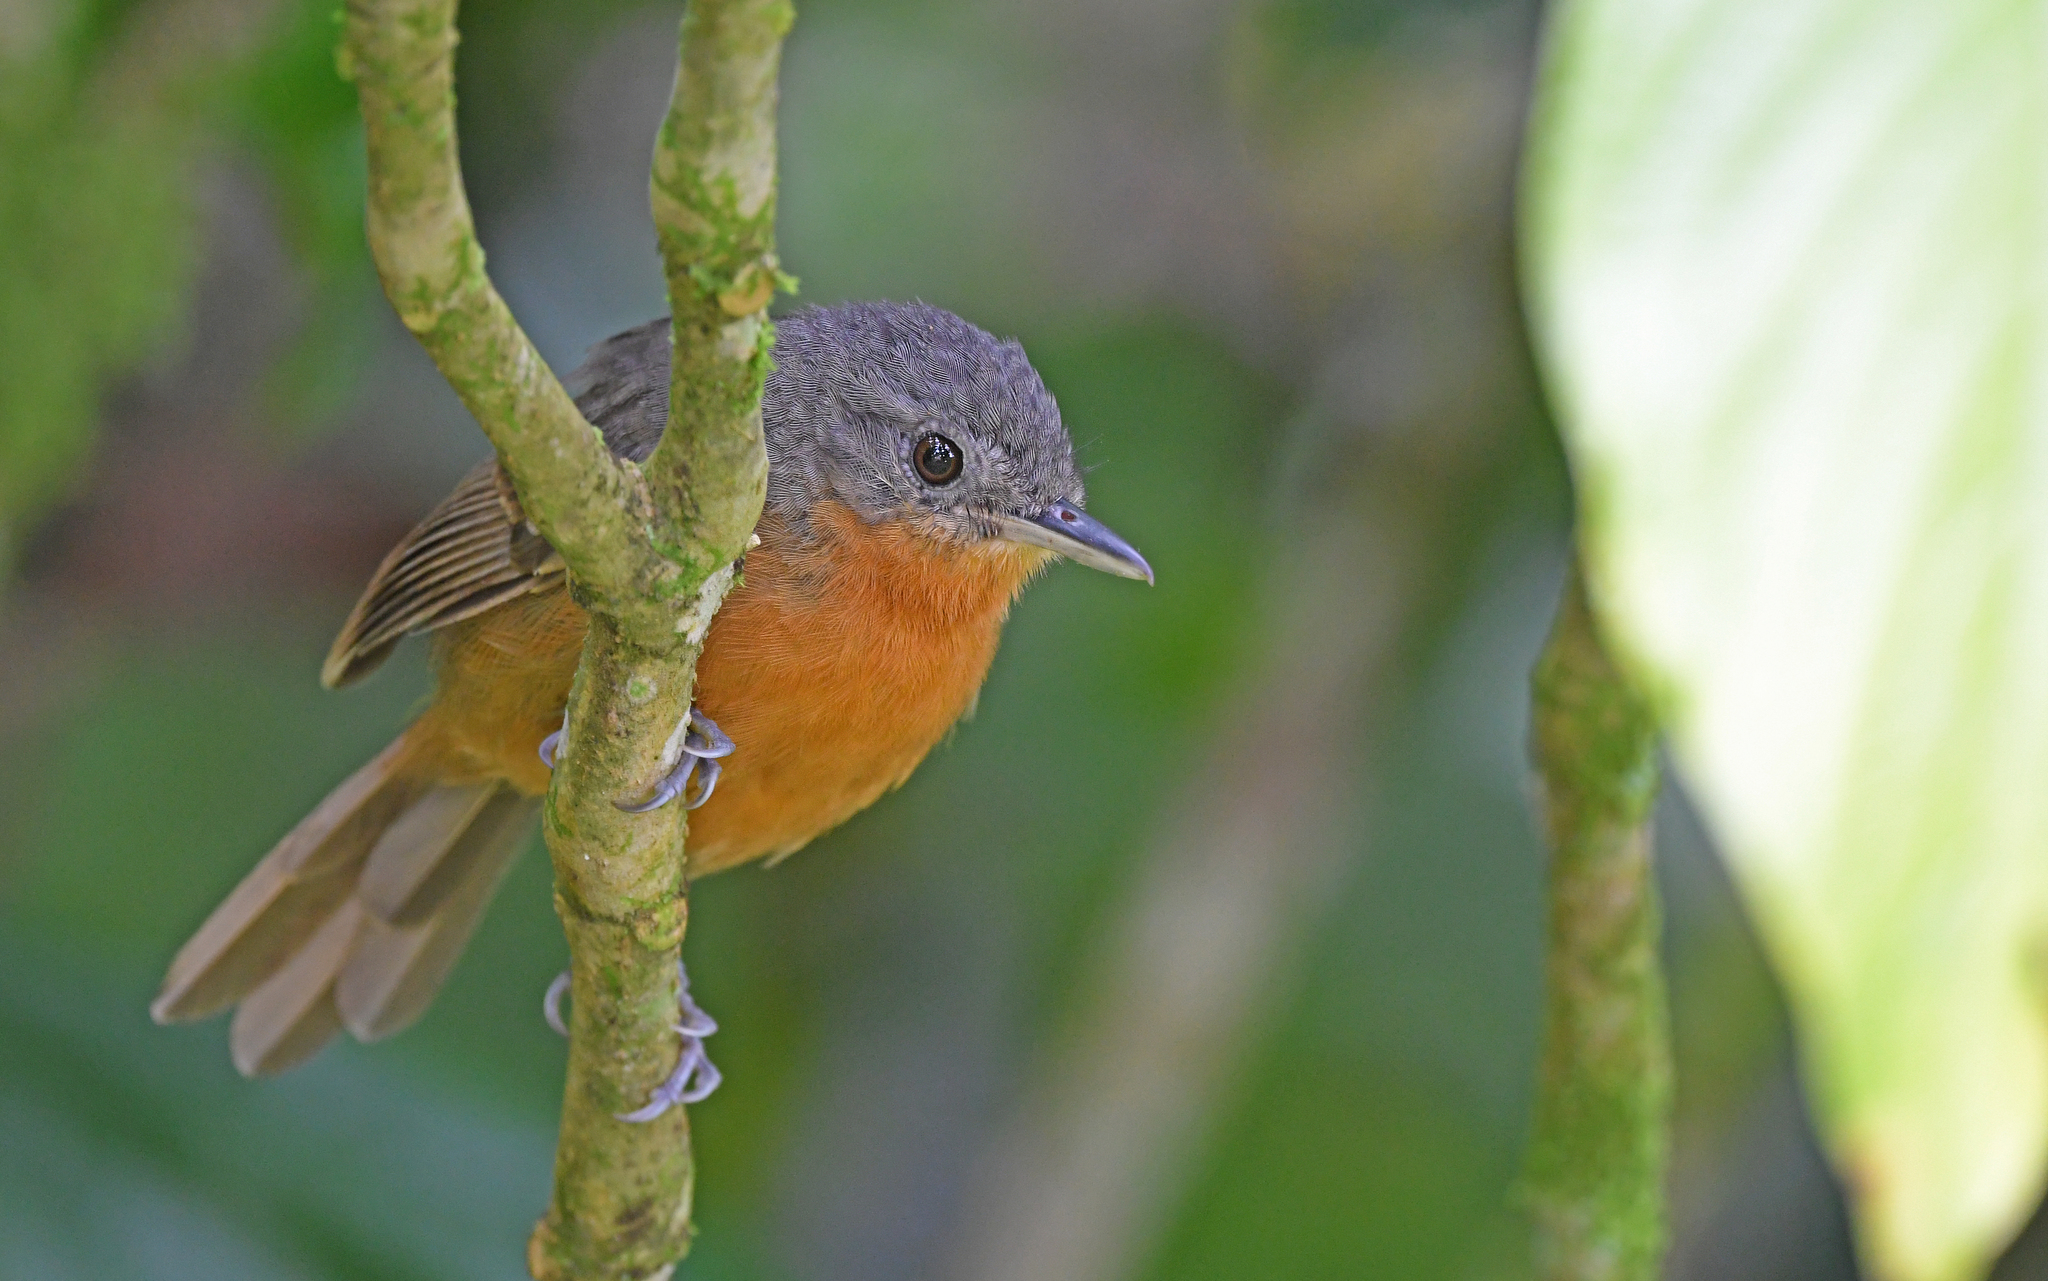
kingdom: Animalia
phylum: Chordata
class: Aves
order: Passeriformes
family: Thamnophilidae
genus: Cercomacra
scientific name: Cercomacra parkeri
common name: Parker's antbird
